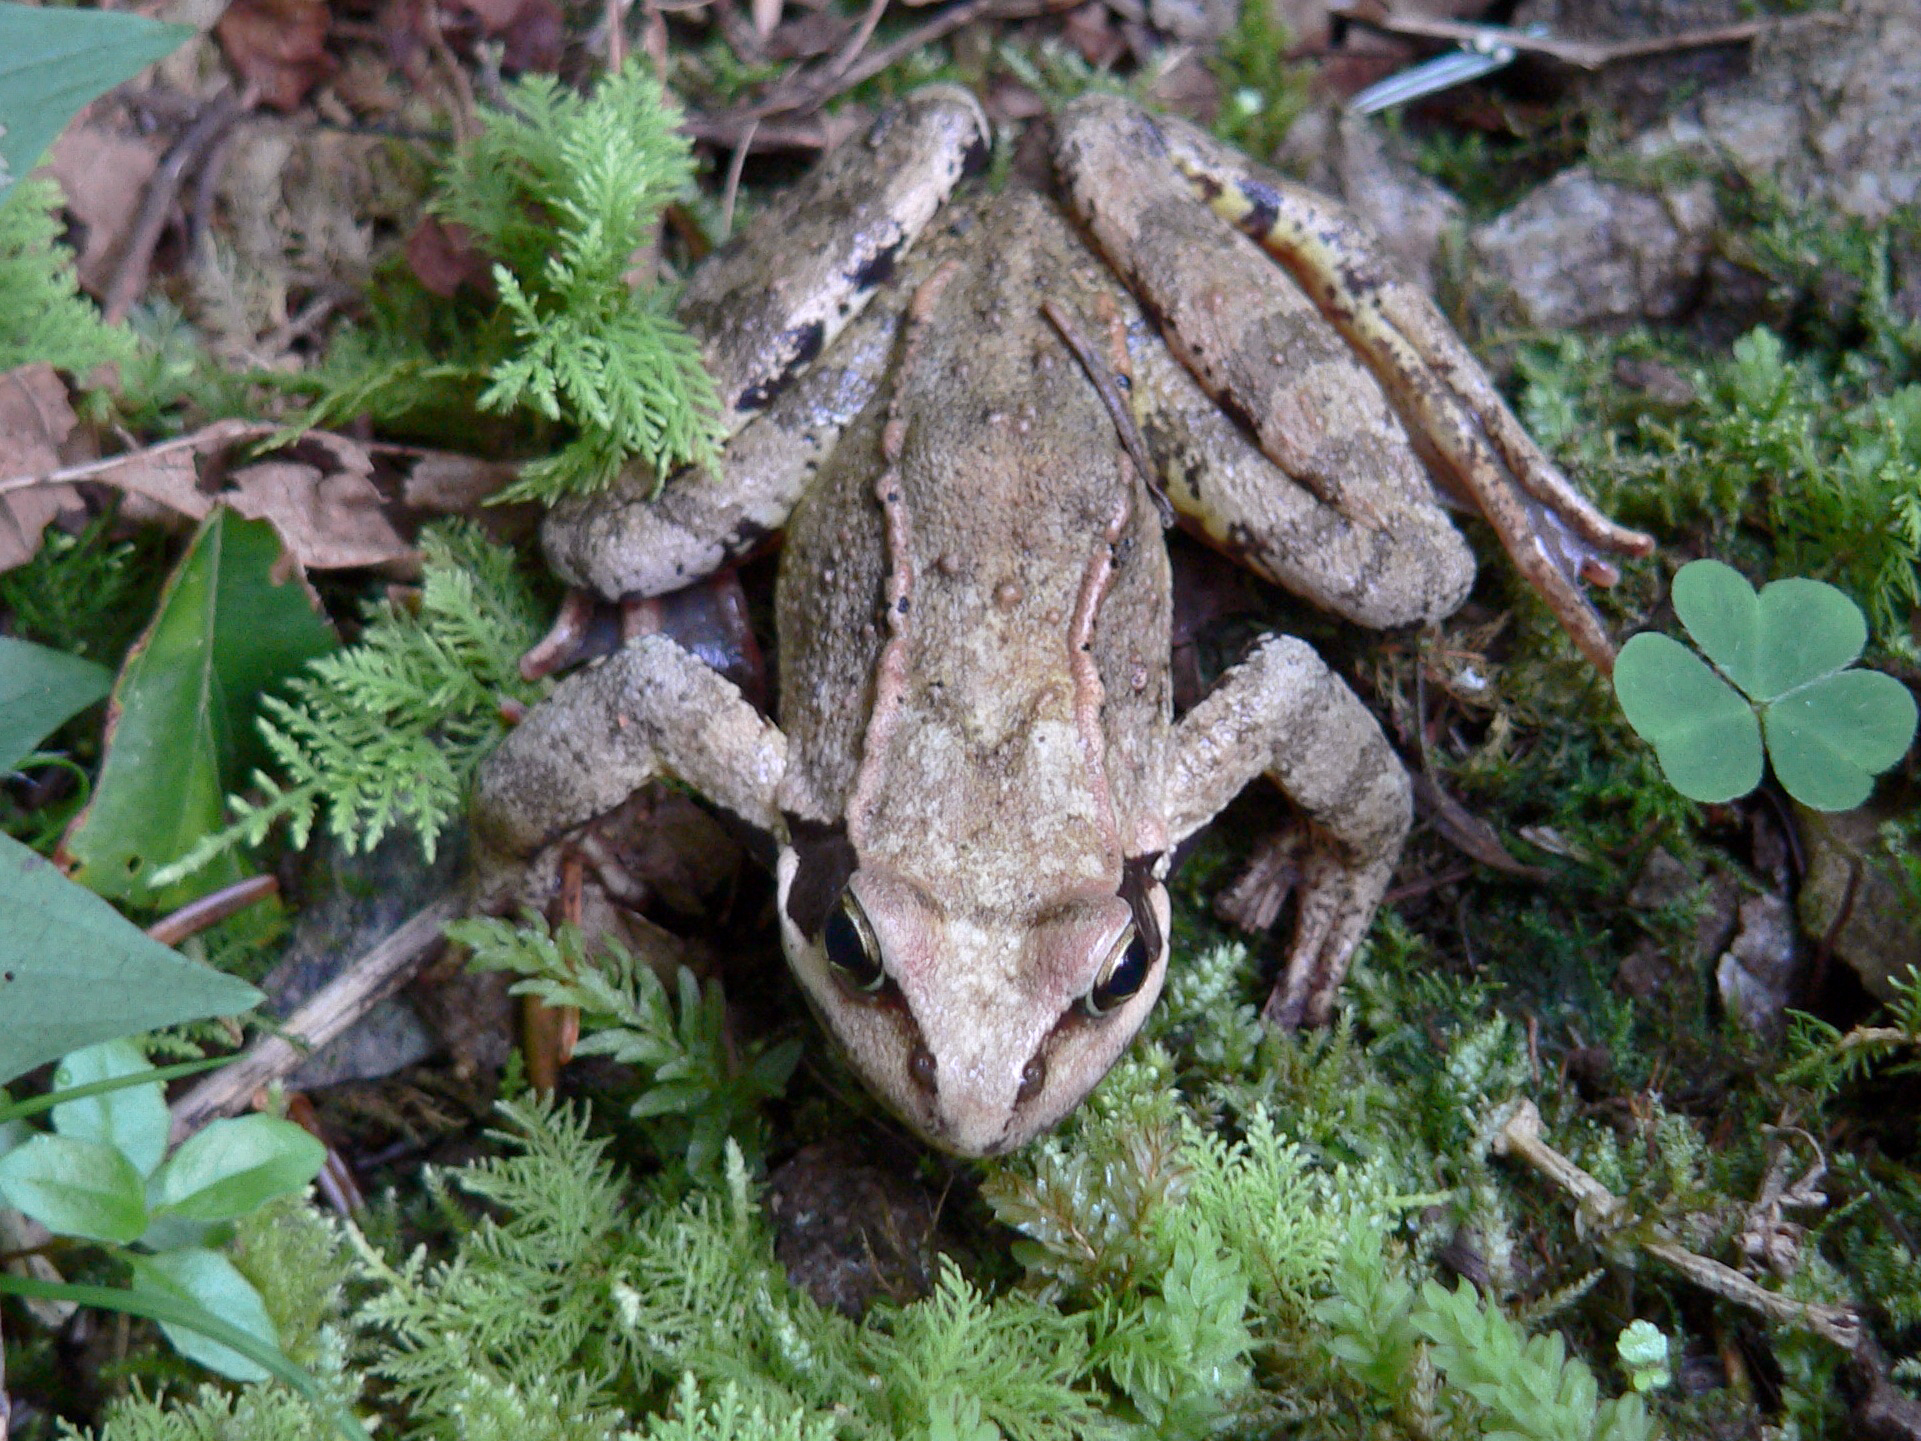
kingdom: Animalia
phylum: Chordata
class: Amphibia
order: Anura
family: Ranidae
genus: Rana
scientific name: Rana temporaria
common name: Common frog
